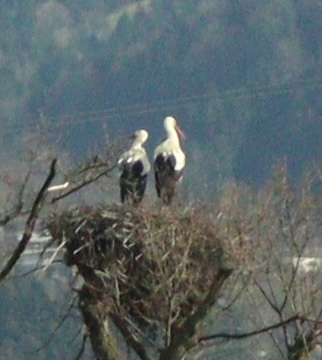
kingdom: Animalia
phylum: Chordata
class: Aves
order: Ciconiiformes
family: Ciconiidae
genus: Ciconia
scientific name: Ciconia ciconia
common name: White stork
